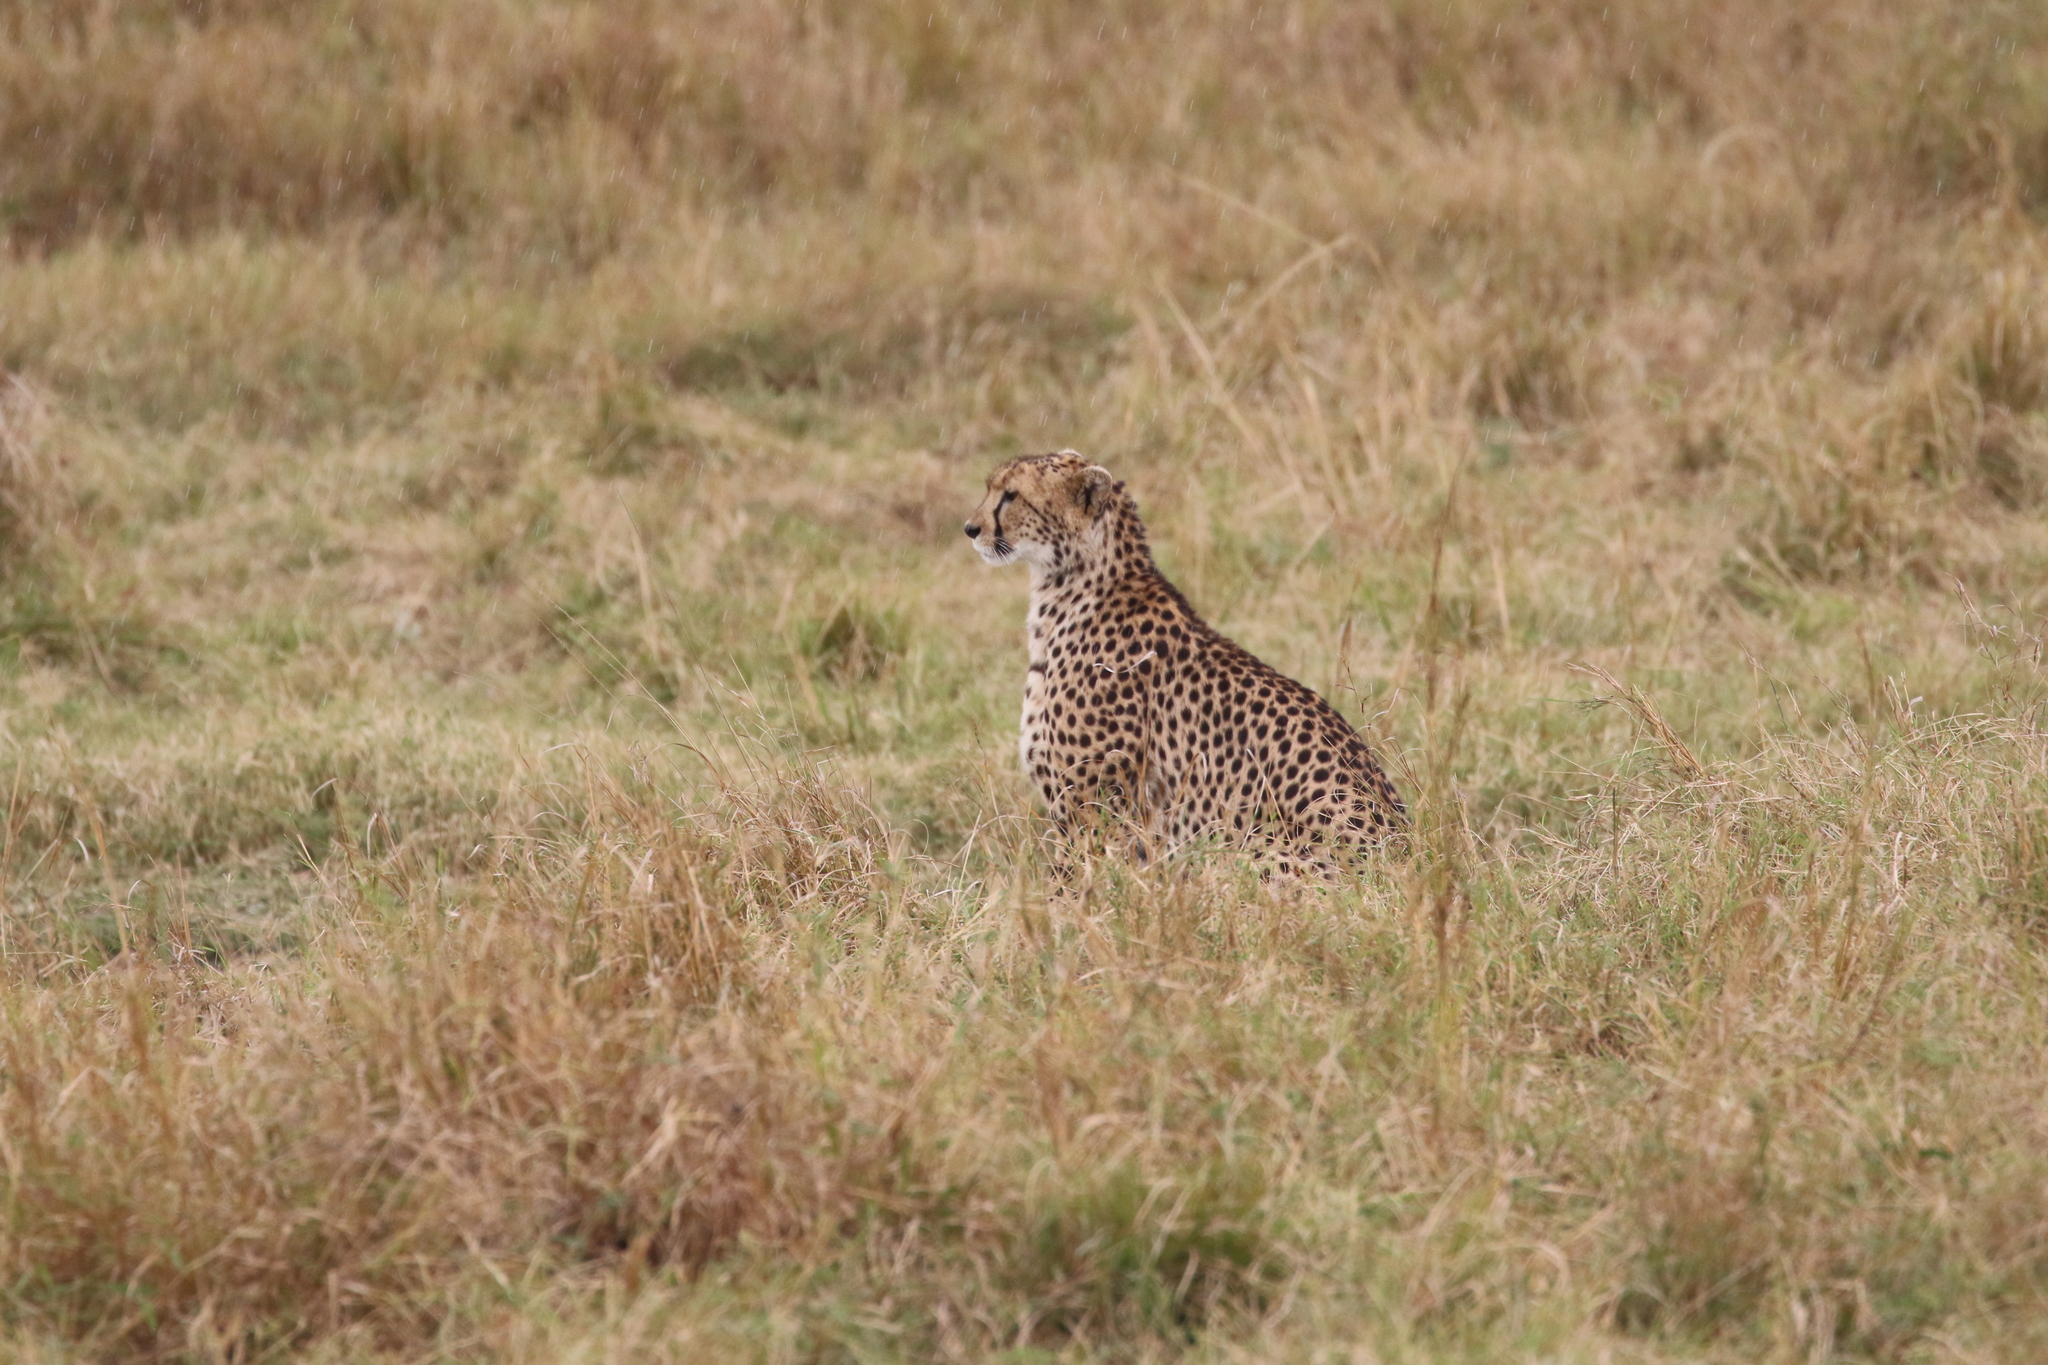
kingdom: Animalia
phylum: Chordata
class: Mammalia
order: Carnivora
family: Felidae
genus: Acinonyx
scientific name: Acinonyx jubatus
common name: Cheetah
